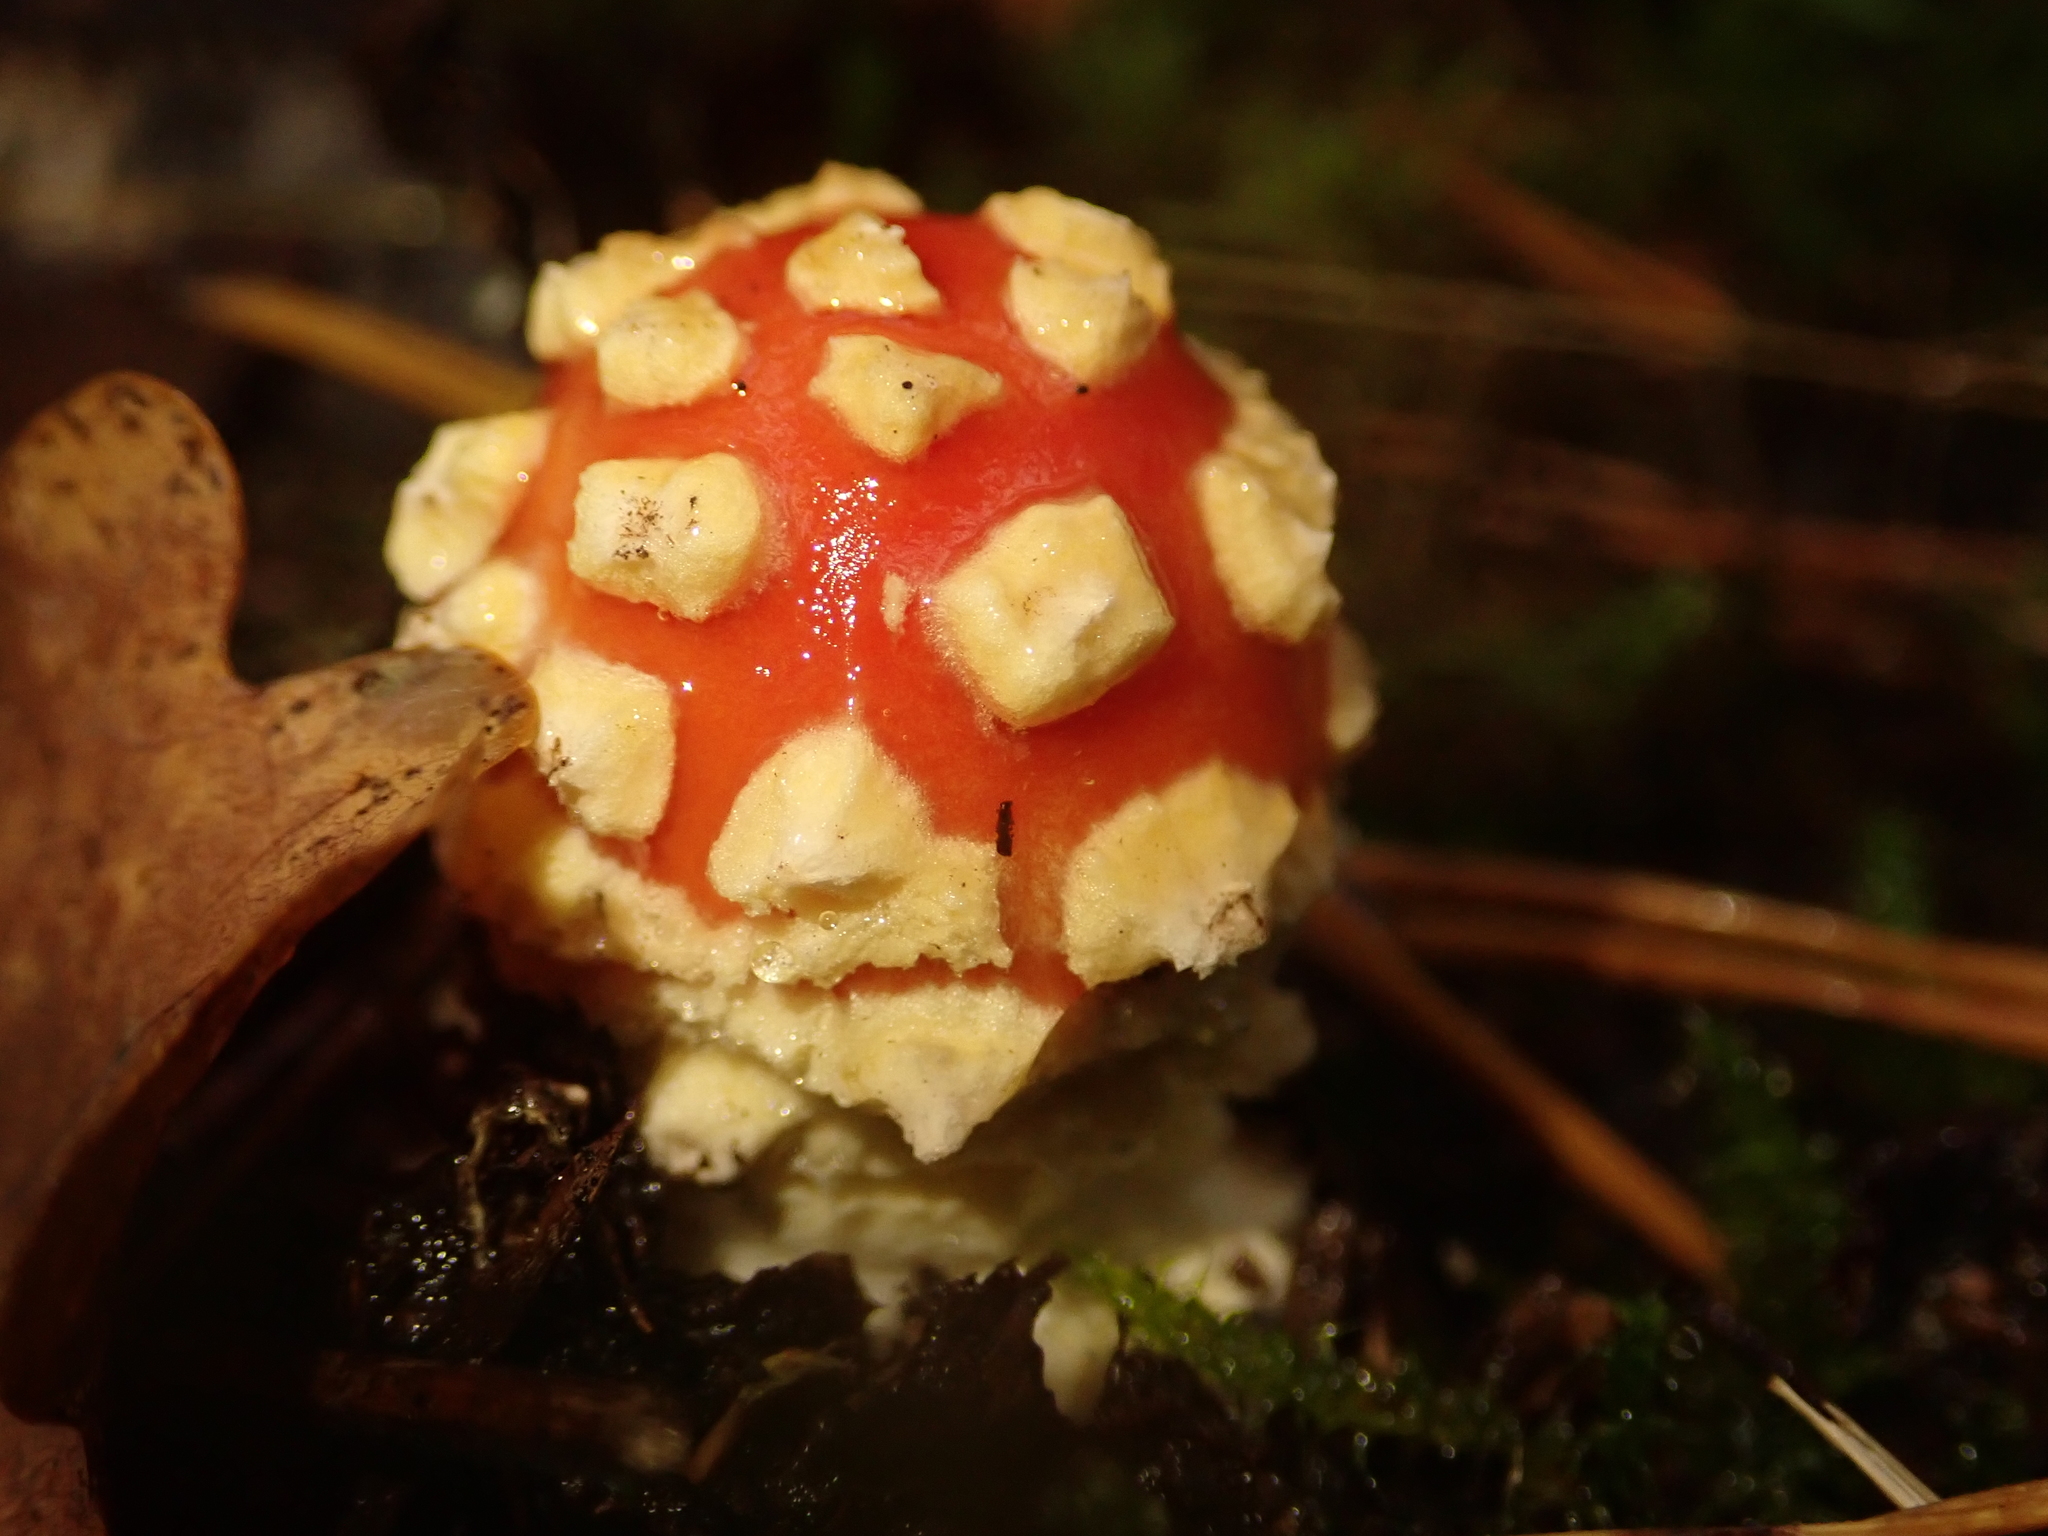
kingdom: Fungi
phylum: Basidiomycota
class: Agaricomycetes
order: Agaricales
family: Amanitaceae
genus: Amanita
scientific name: Amanita muscaria
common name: Fly agaric
